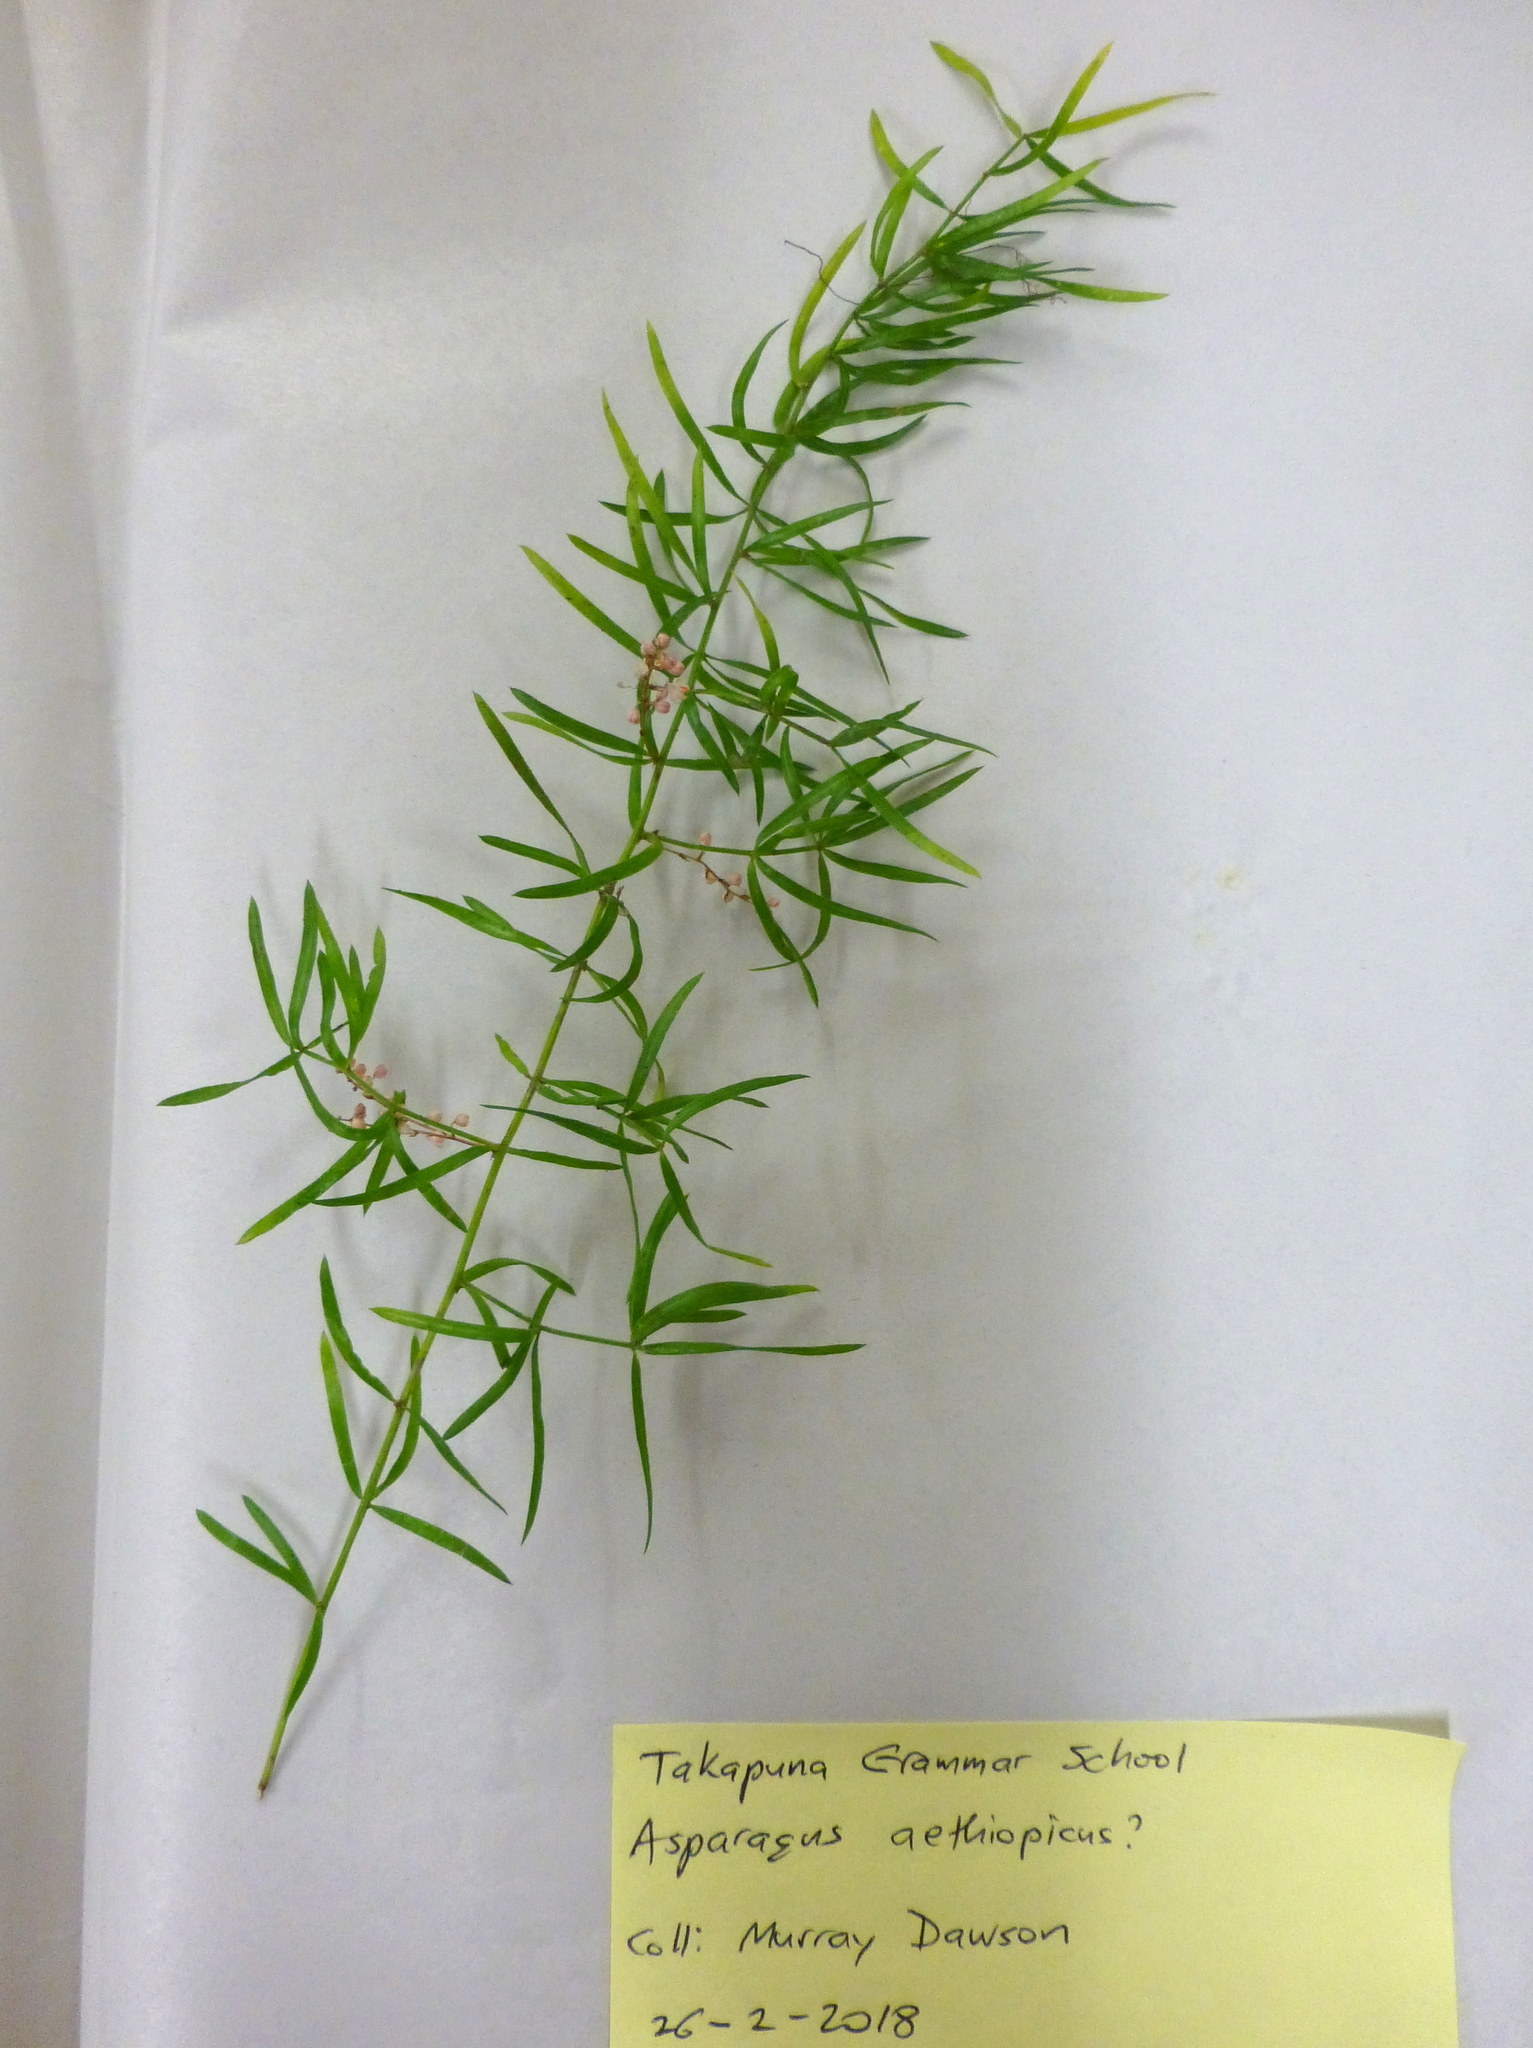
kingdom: Plantae
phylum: Tracheophyta
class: Liliopsida
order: Asparagales
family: Asparagaceae
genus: Asparagus
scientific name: Asparagus aethiopicus
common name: Sprenger's asparagus fern
